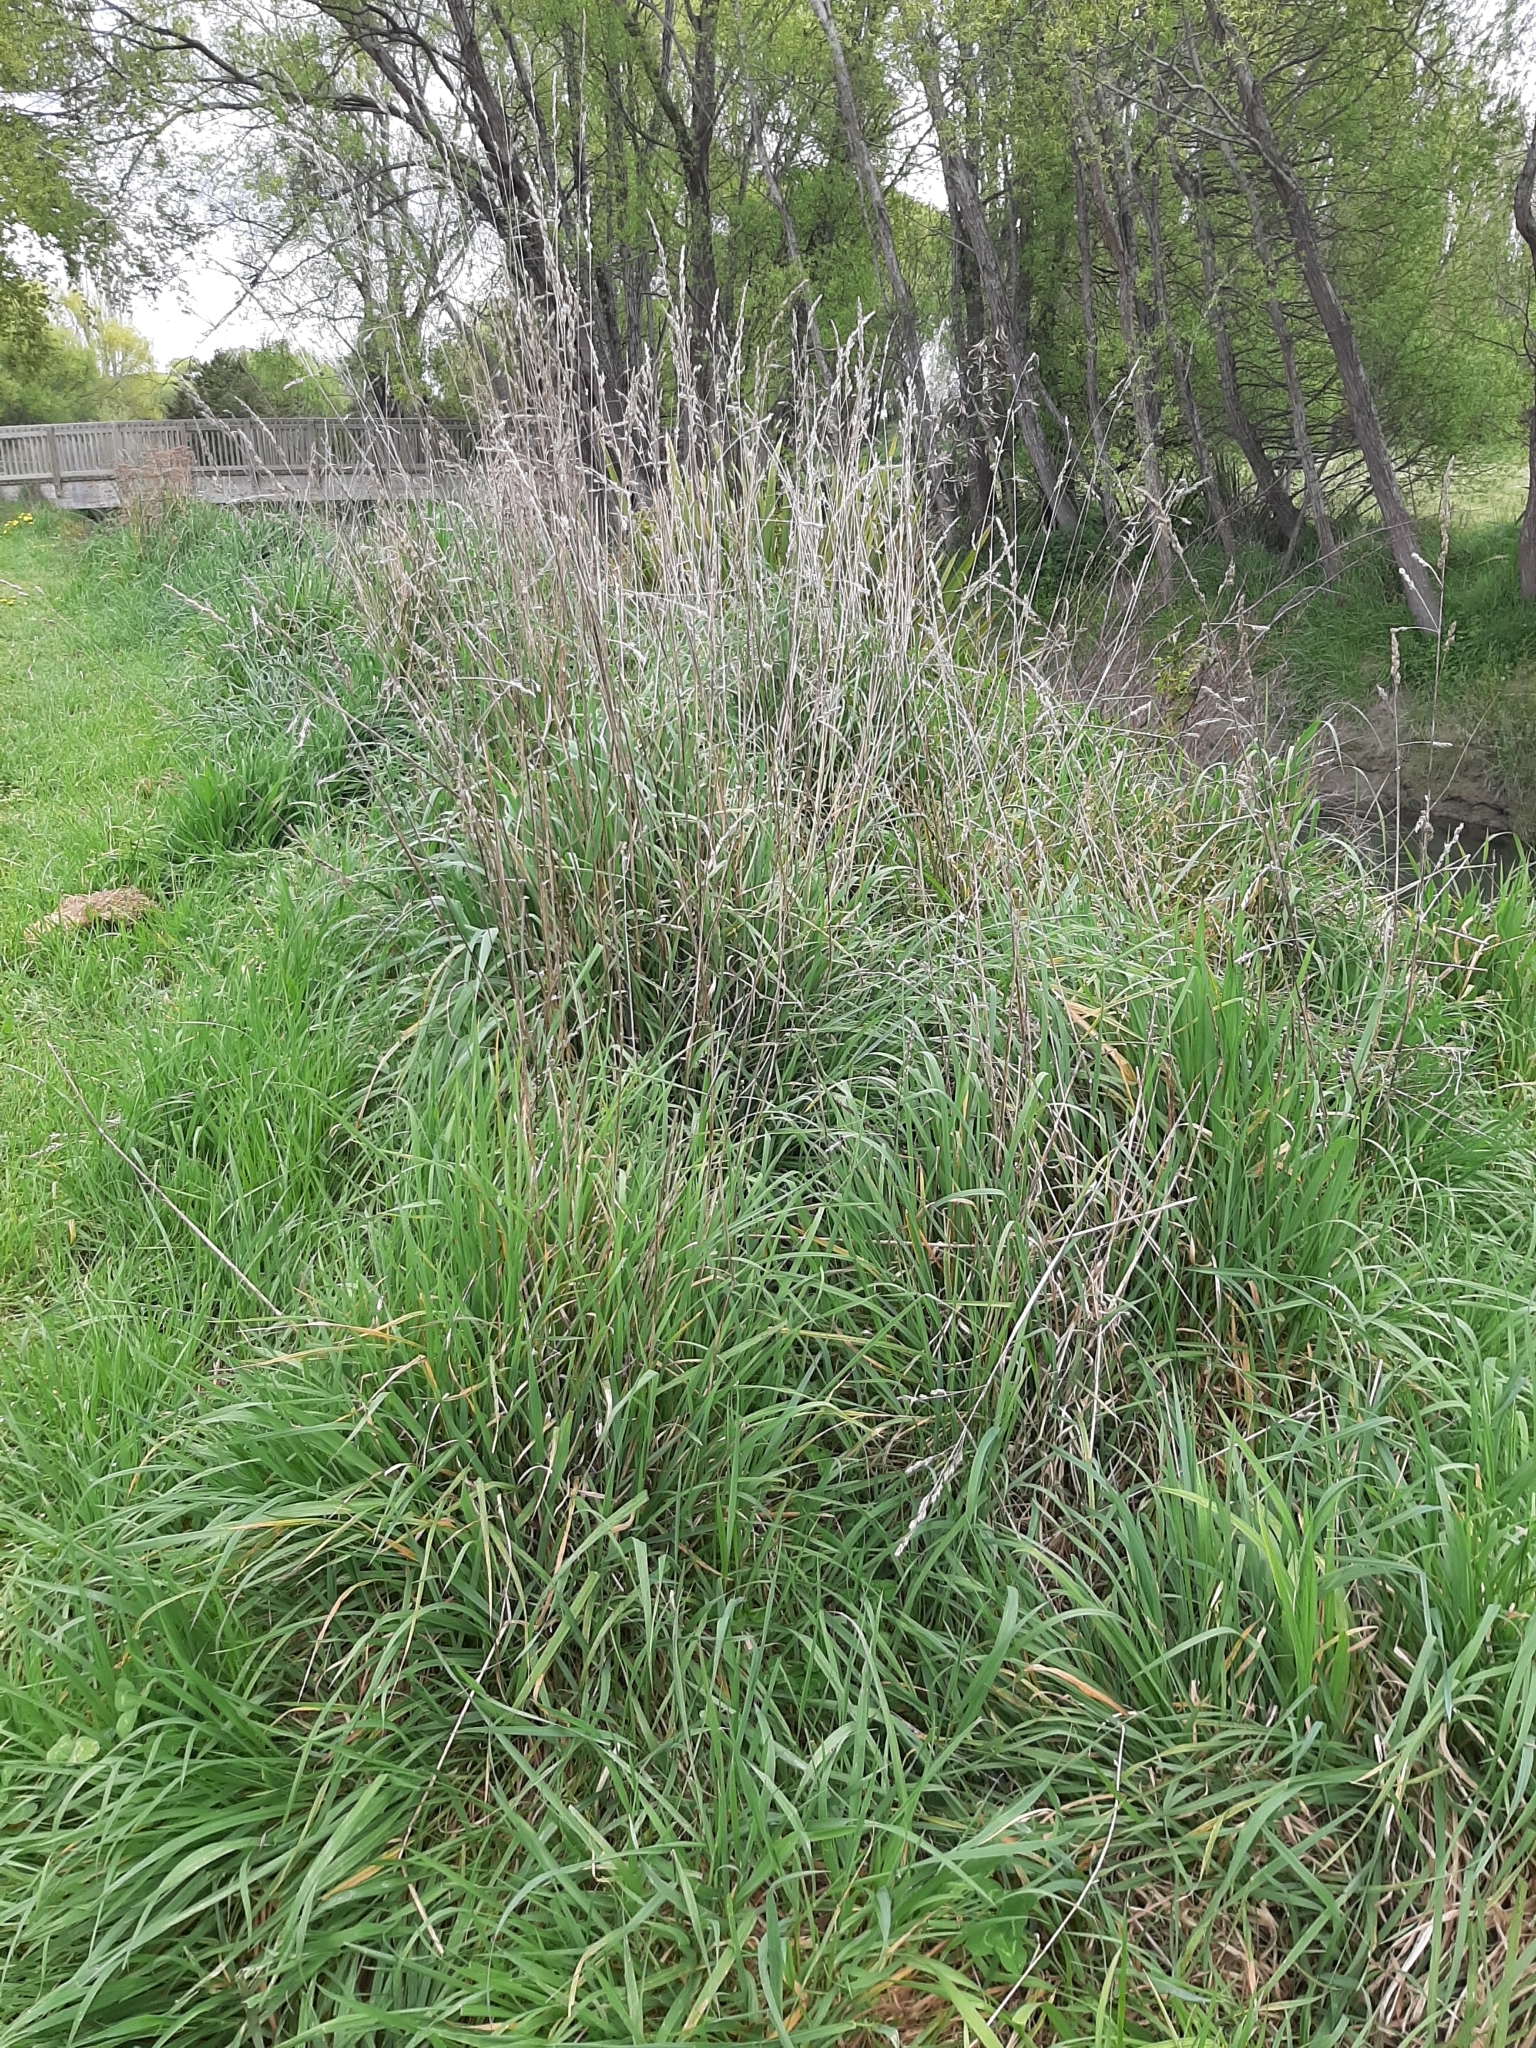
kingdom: Plantae
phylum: Tracheophyta
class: Liliopsida
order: Poales
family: Poaceae
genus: Dactylis
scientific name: Dactylis glomerata
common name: Orchardgrass
